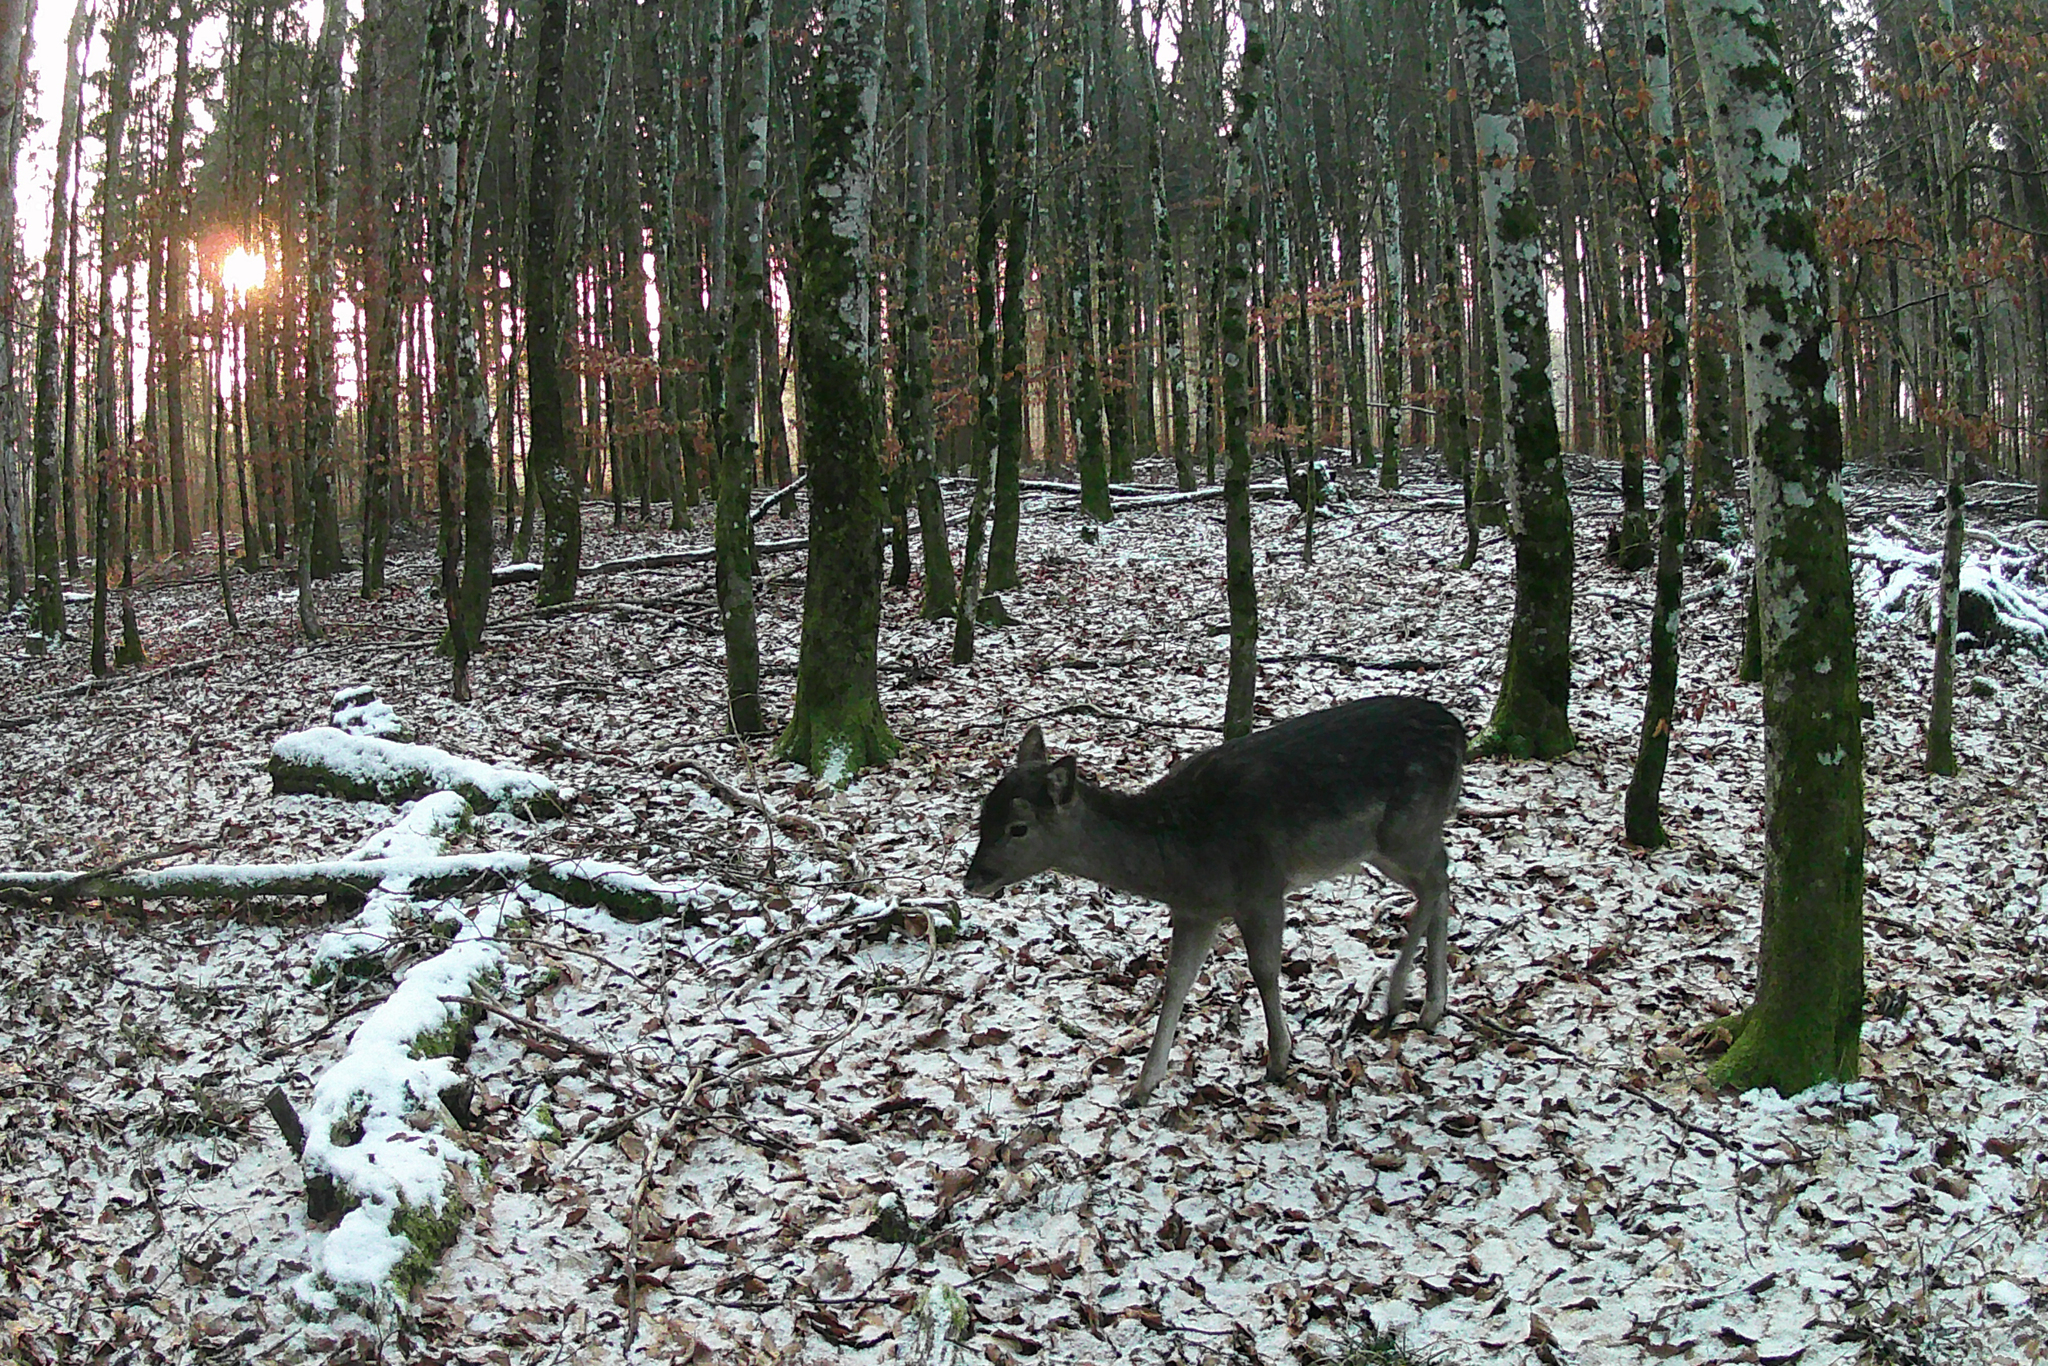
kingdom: Animalia
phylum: Chordata
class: Mammalia
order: Artiodactyla
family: Cervidae
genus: Dama
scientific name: Dama dama
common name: Fallow deer
